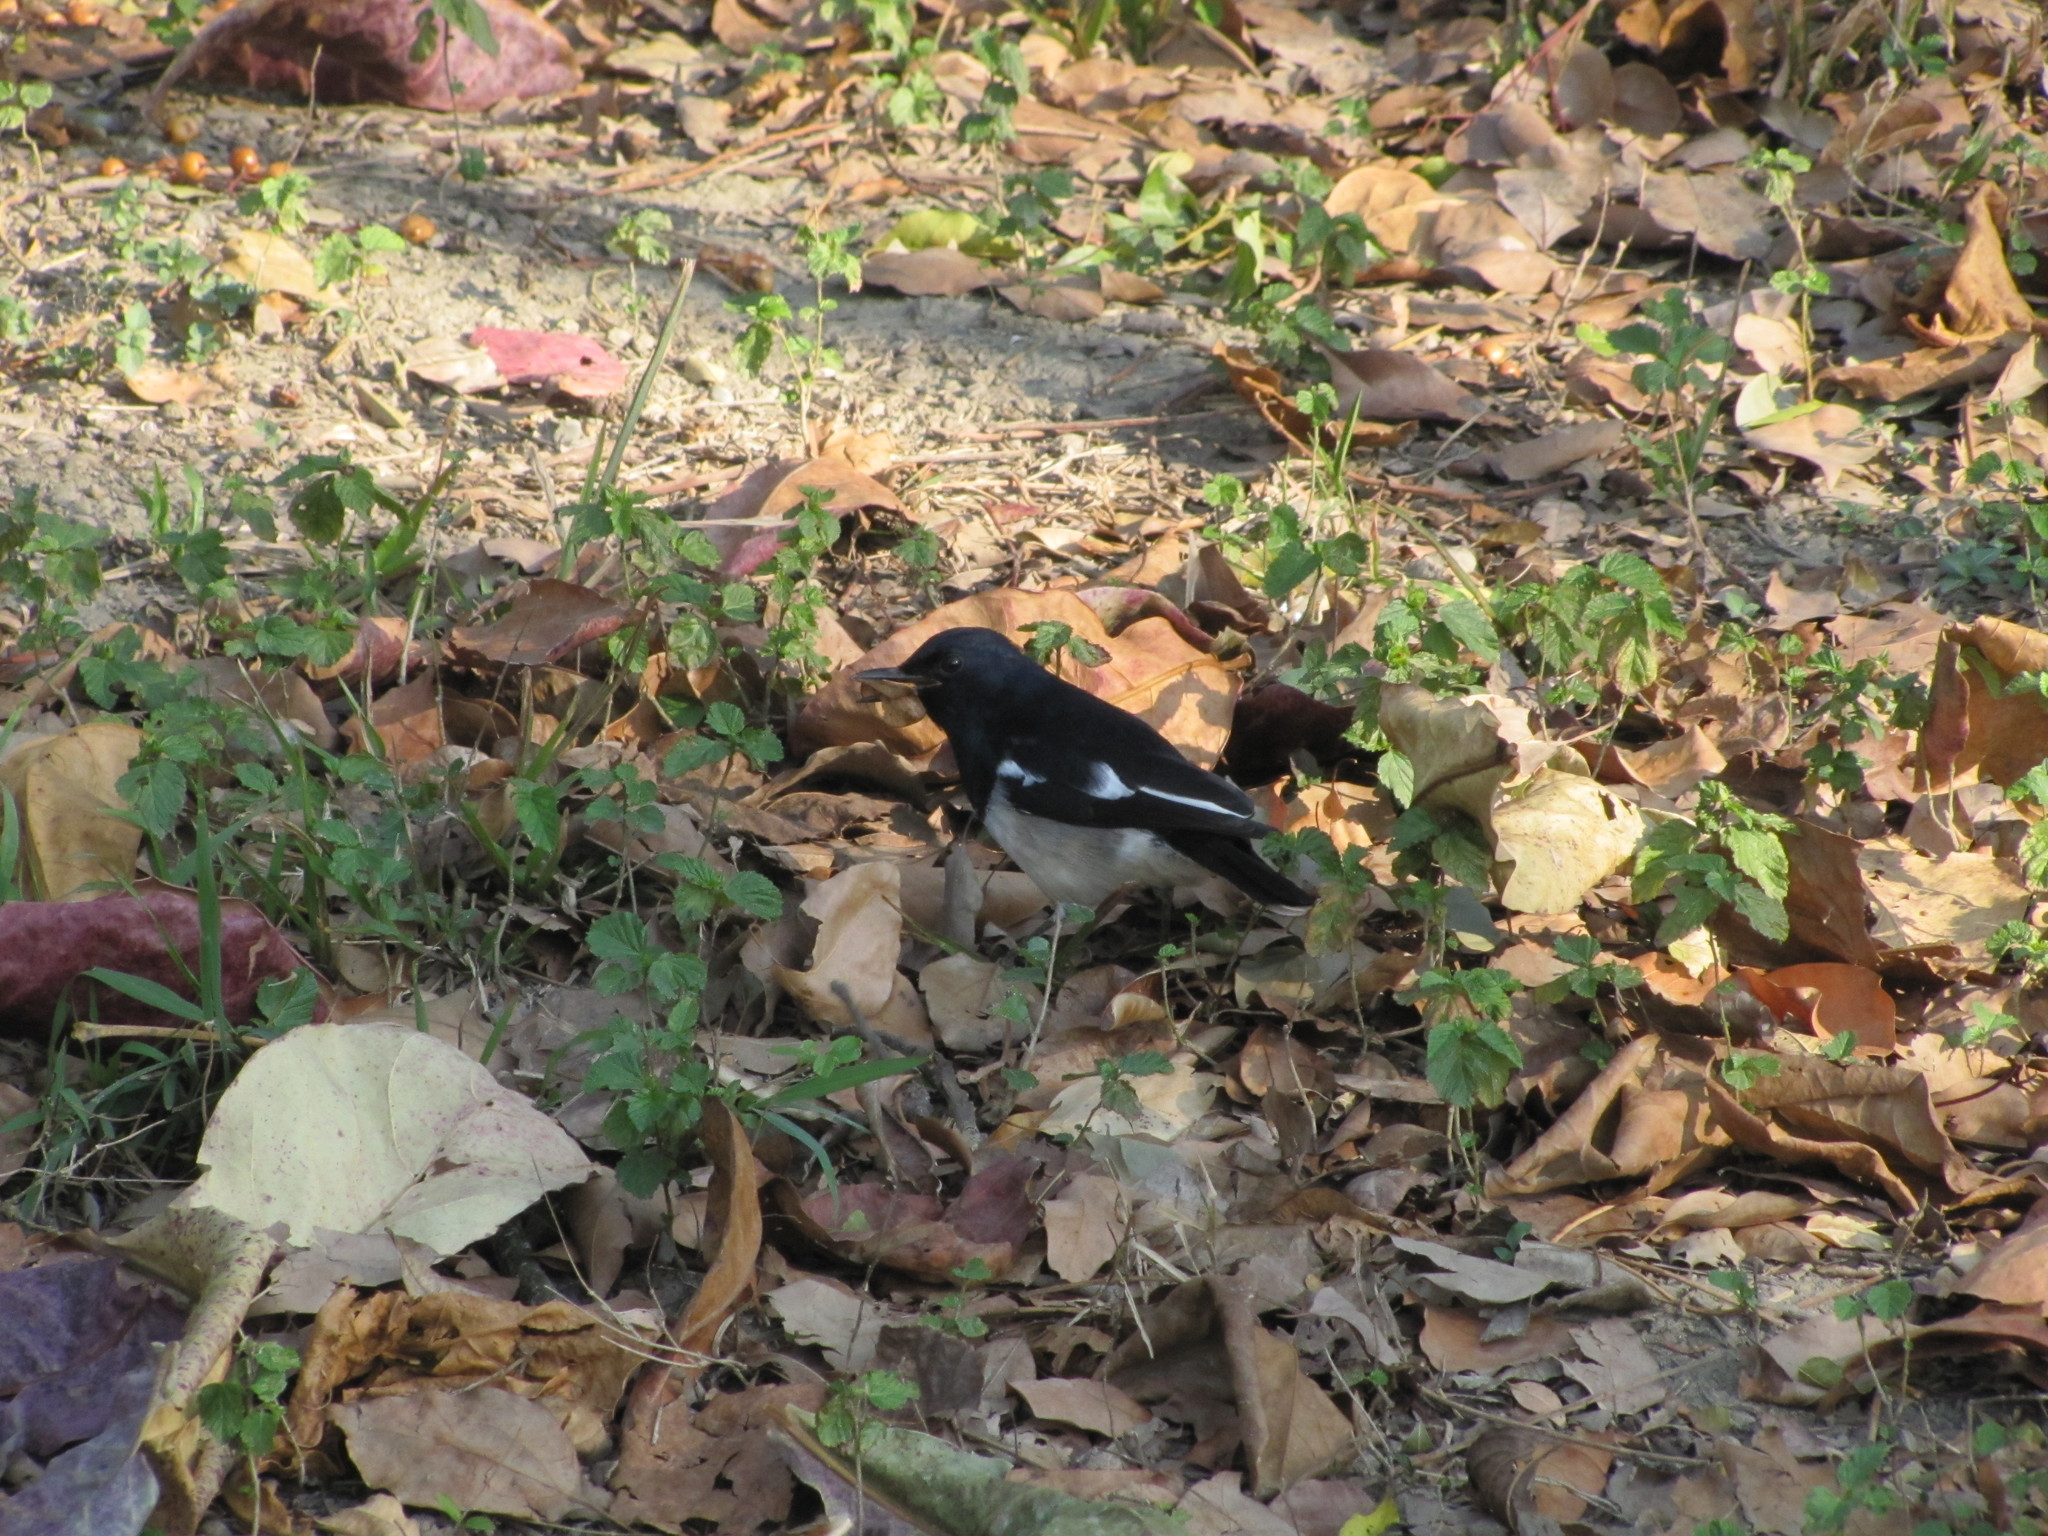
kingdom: Animalia
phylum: Chordata
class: Aves
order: Passeriformes
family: Muscicapidae
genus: Copsychus
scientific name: Copsychus saularis
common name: Oriental magpie-robin
